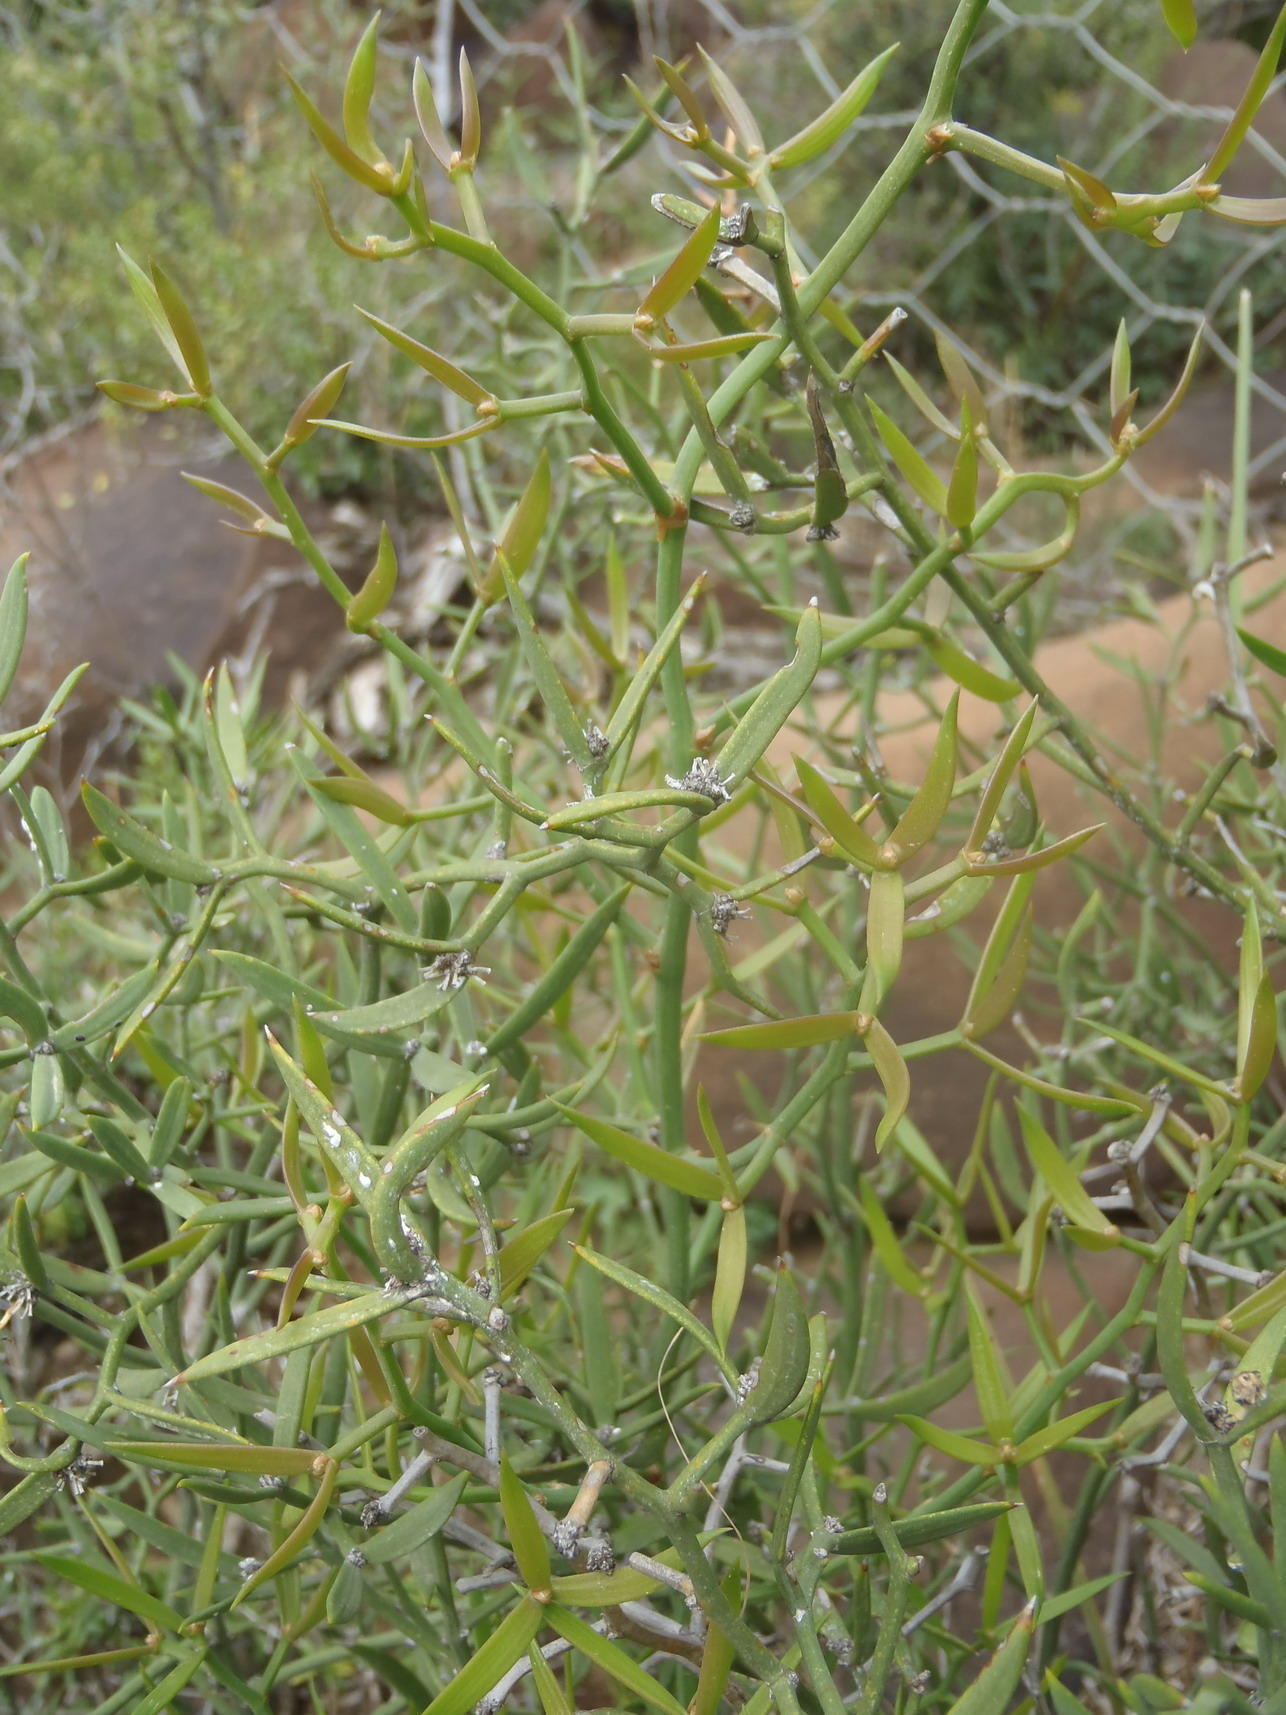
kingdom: Plantae
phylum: Tracheophyta
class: Liliopsida
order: Asparagales
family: Asparagaceae
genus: Asparagus
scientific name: Asparagus striatus
